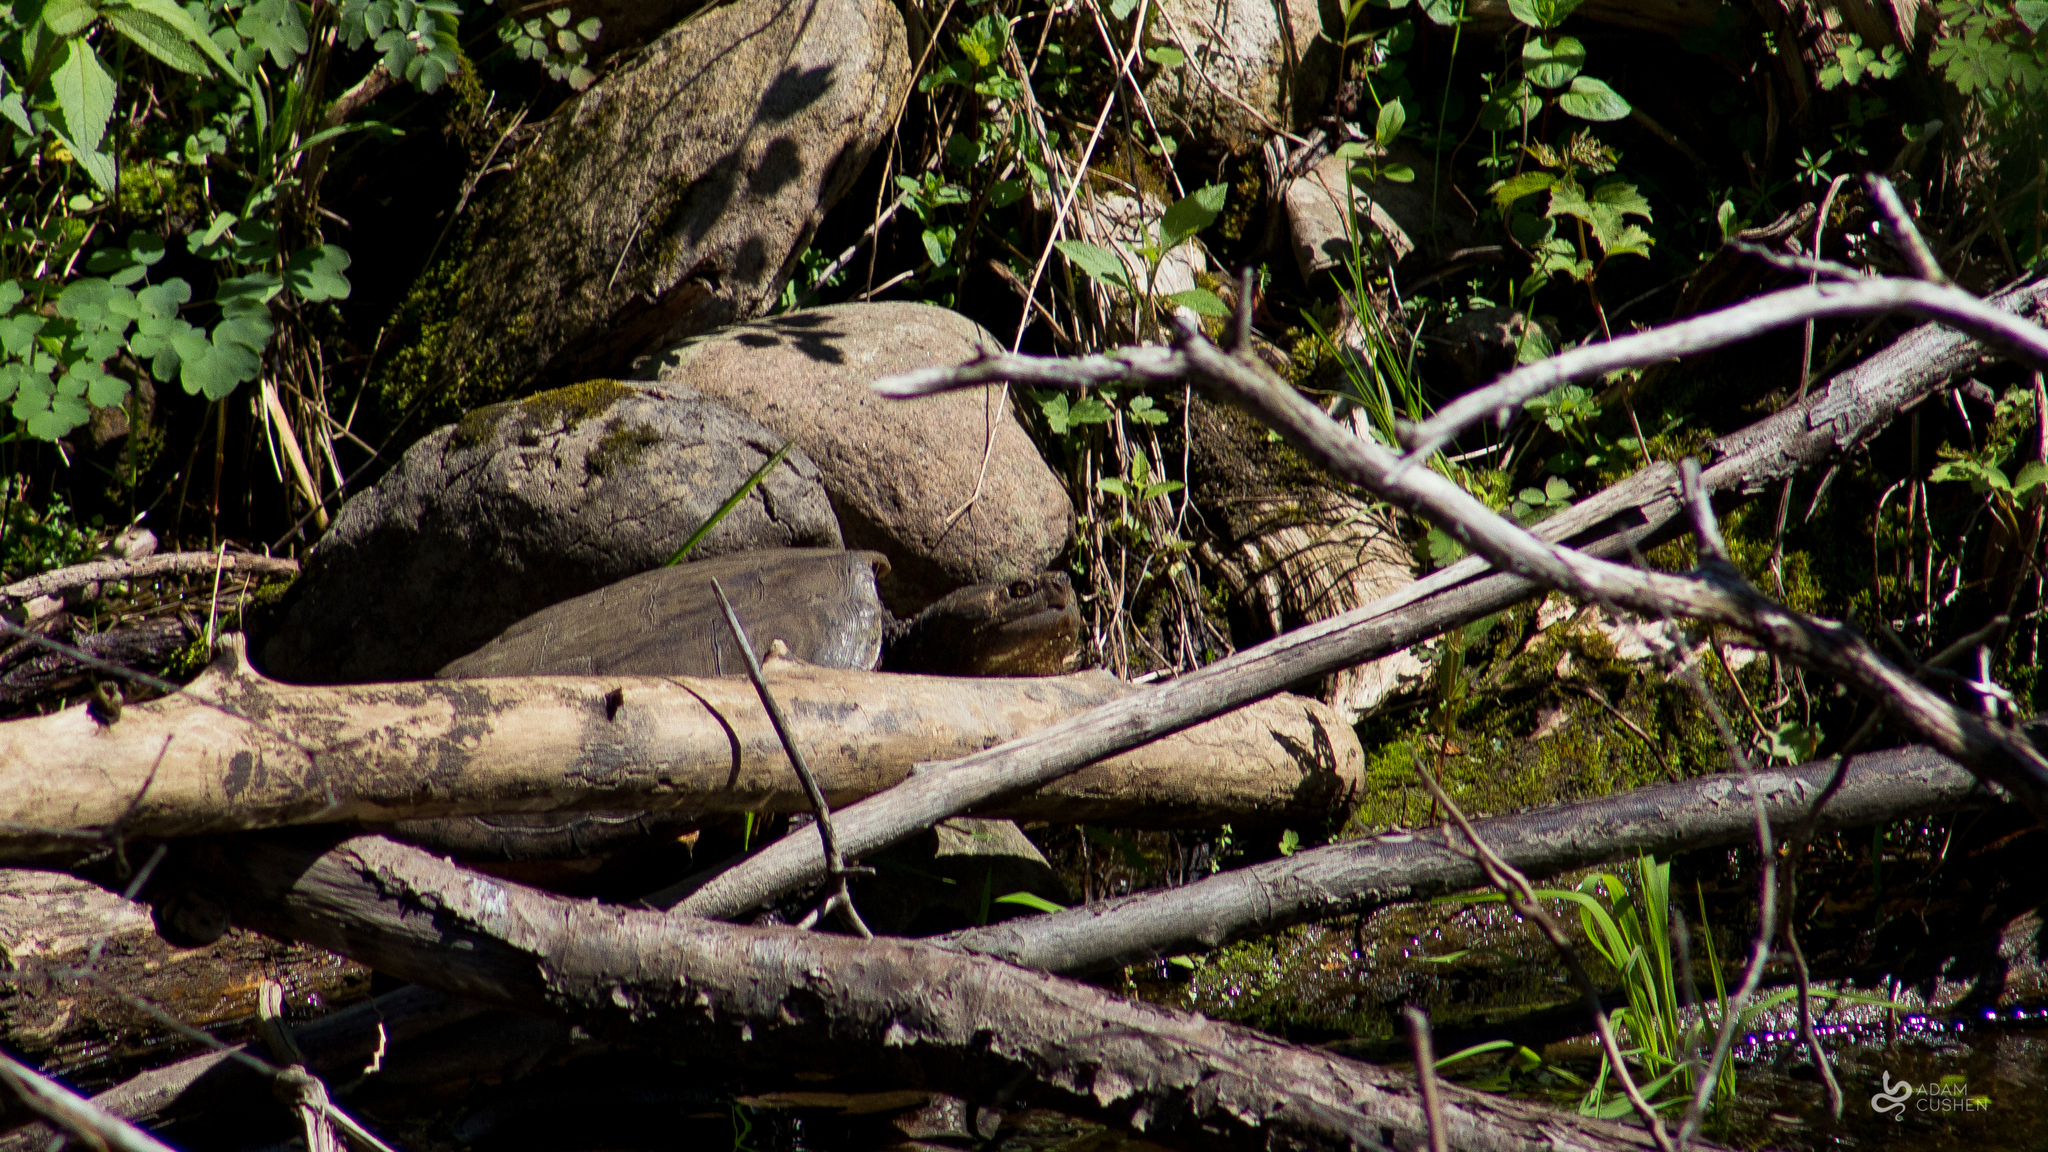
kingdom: Animalia
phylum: Chordata
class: Testudines
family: Chelydridae
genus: Chelydra
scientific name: Chelydra serpentina
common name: Common snapping turtle
